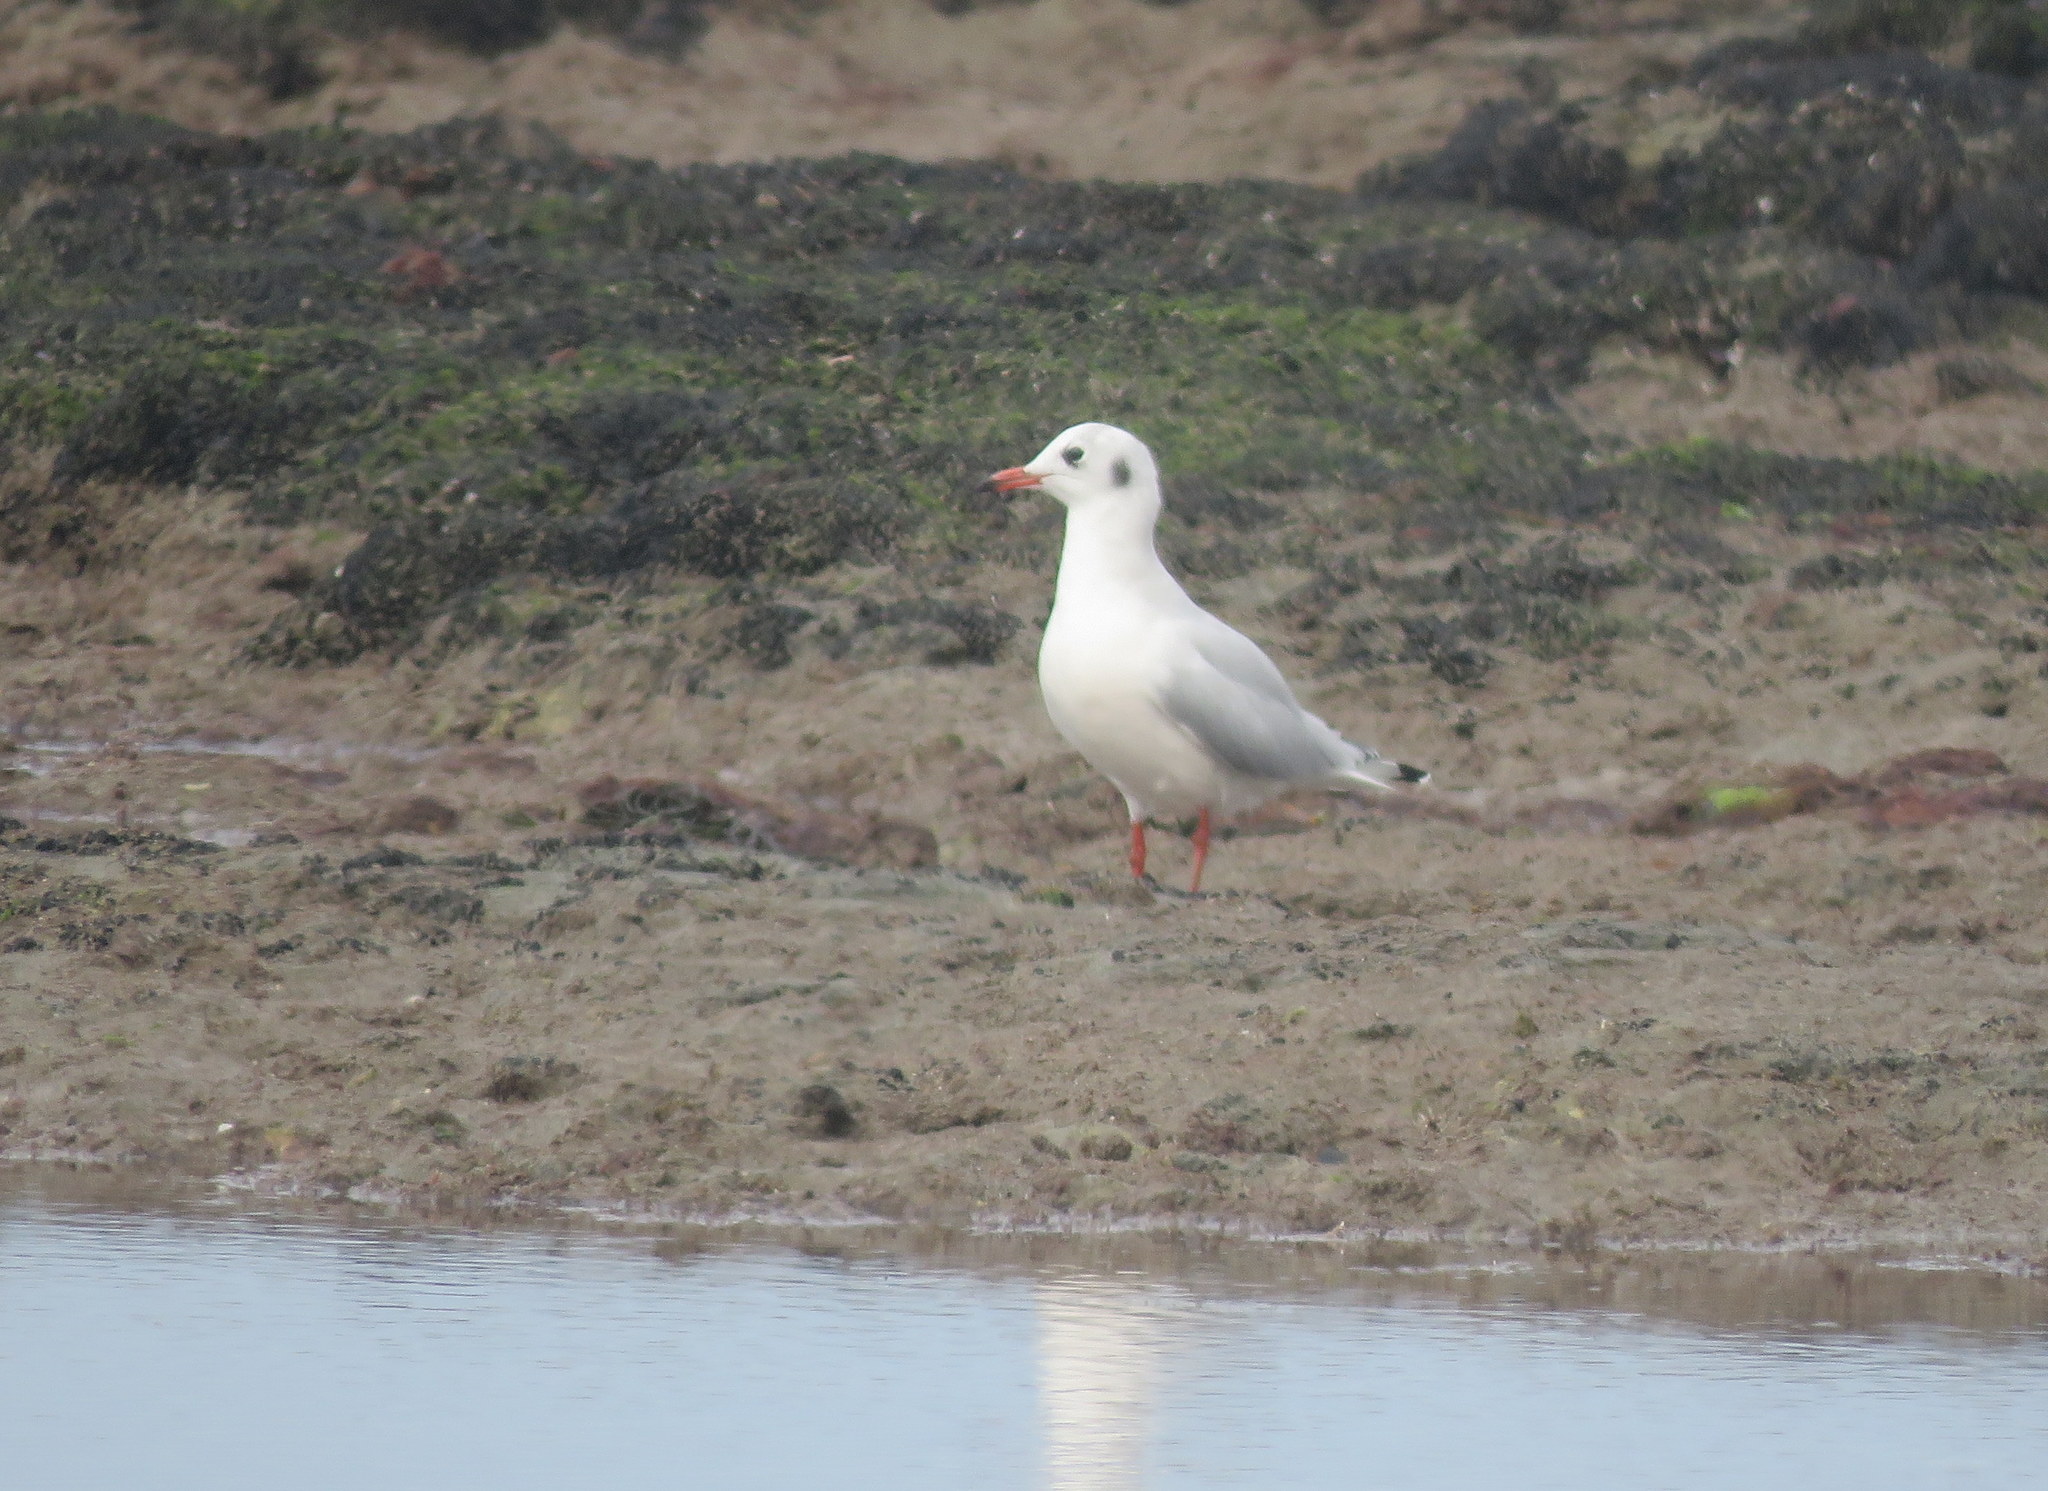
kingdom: Animalia
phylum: Chordata
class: Aves
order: Charadriiformes
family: Laridae
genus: Chroicocephalus
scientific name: Chroicocephalus maculipennis
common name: Brown-hooded gull
